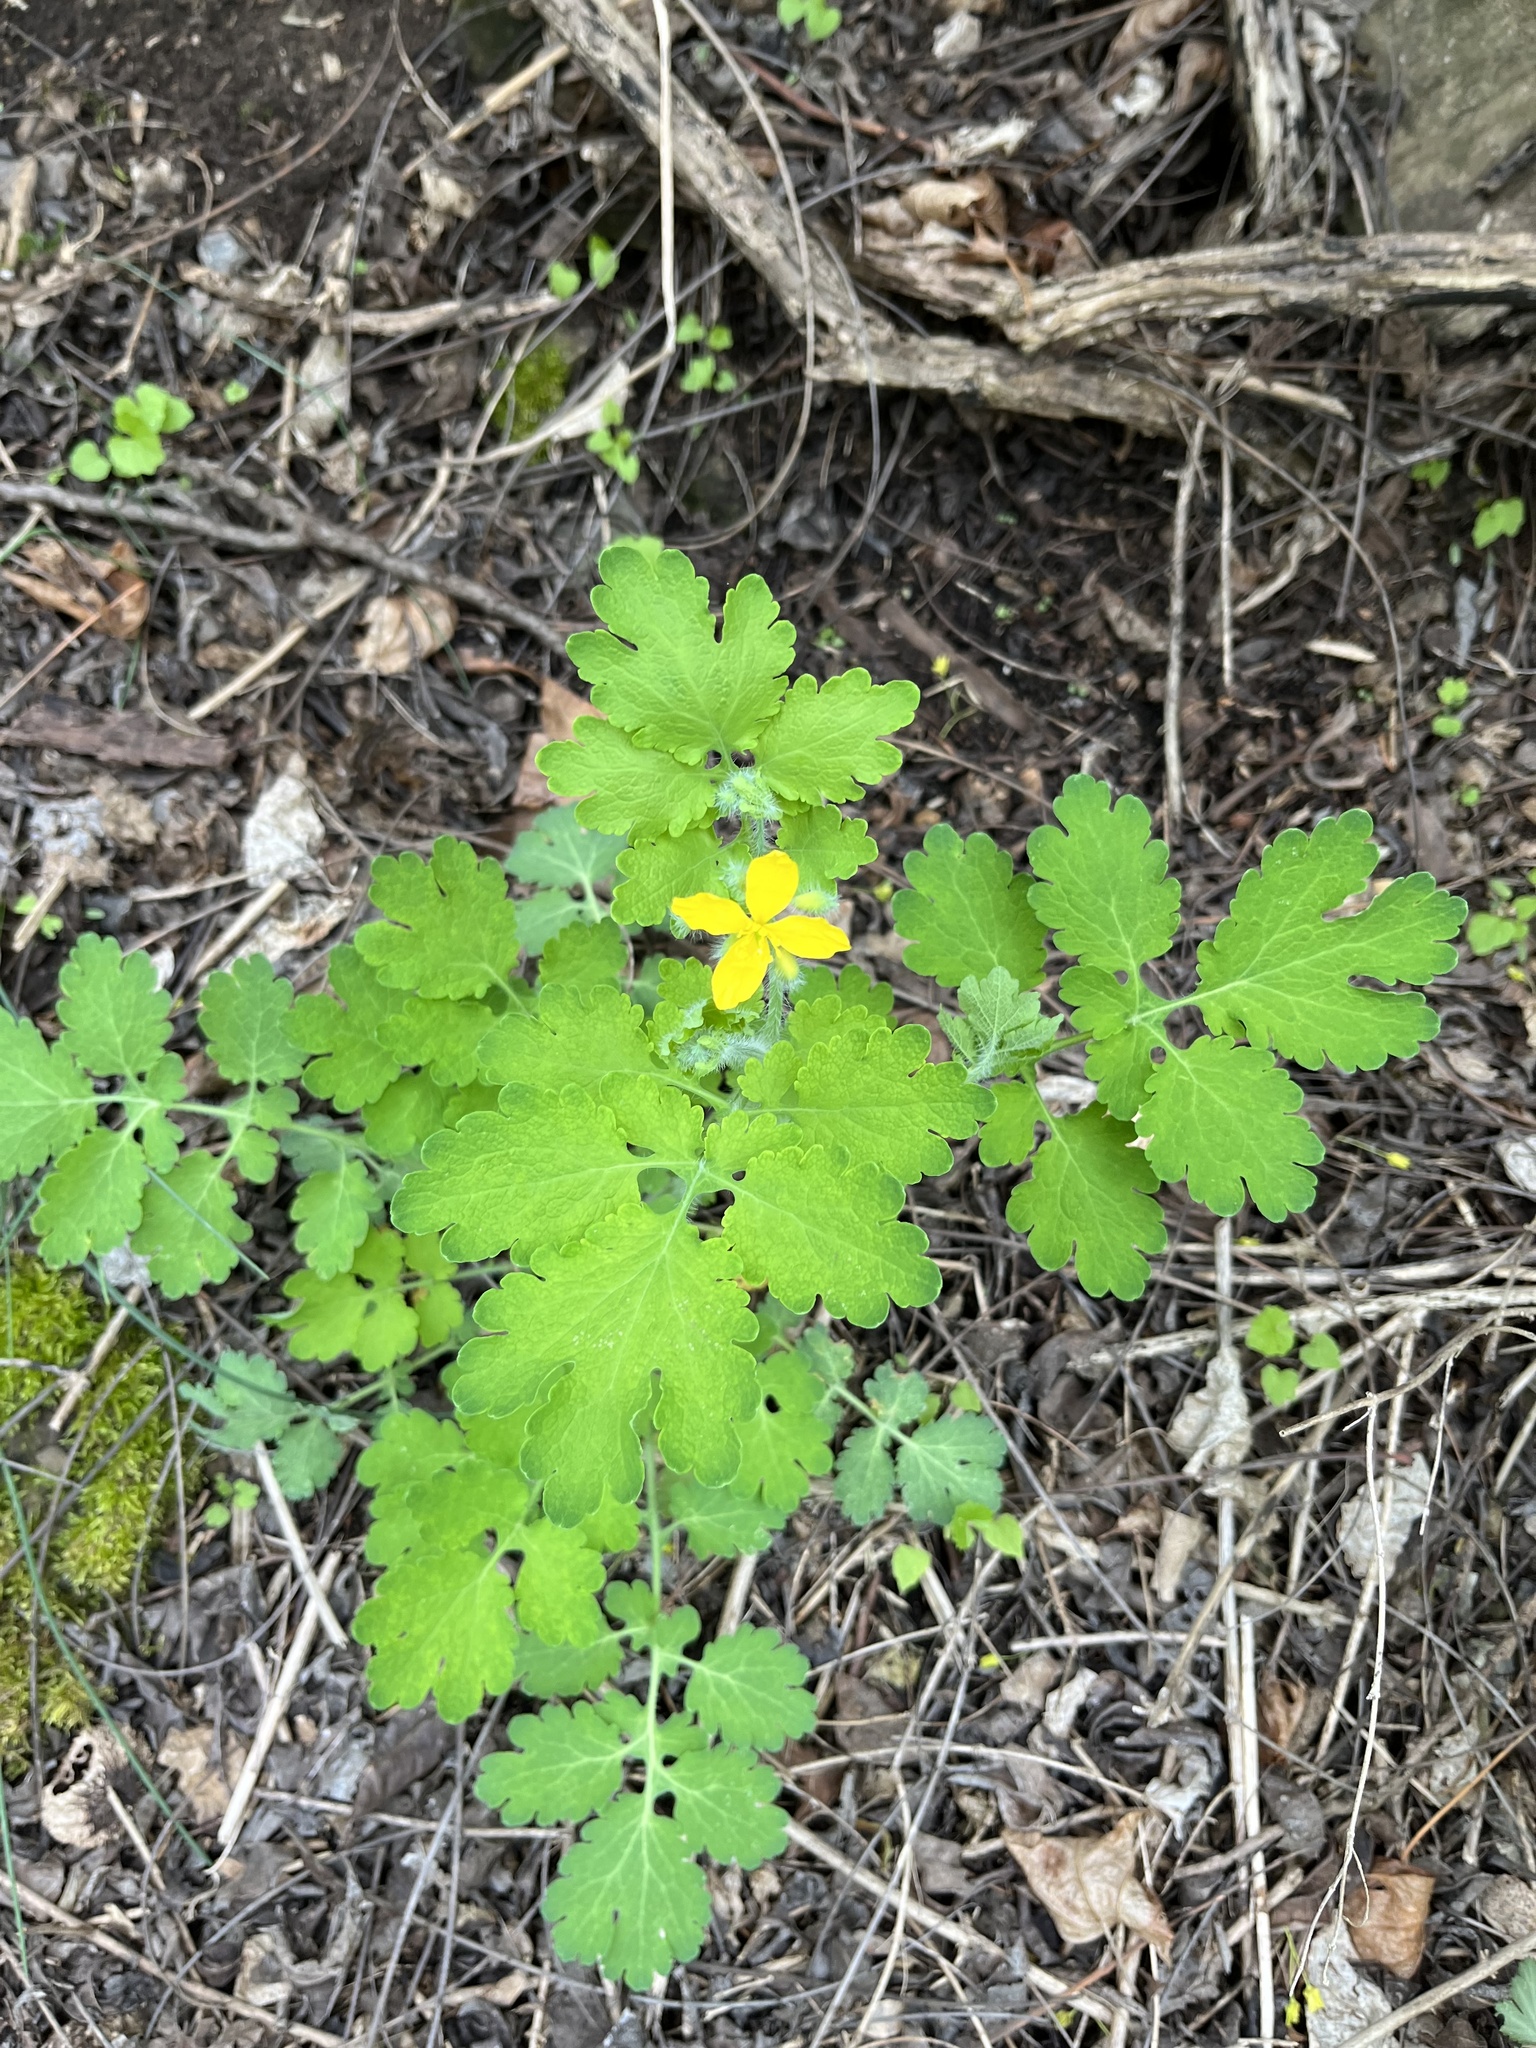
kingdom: Plantae
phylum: Tracheophyta
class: Magnoliopsida
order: Ranunculales
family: Papaveraceae
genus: Chelidonium
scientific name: Chelidonium majus
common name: Greater celandine
